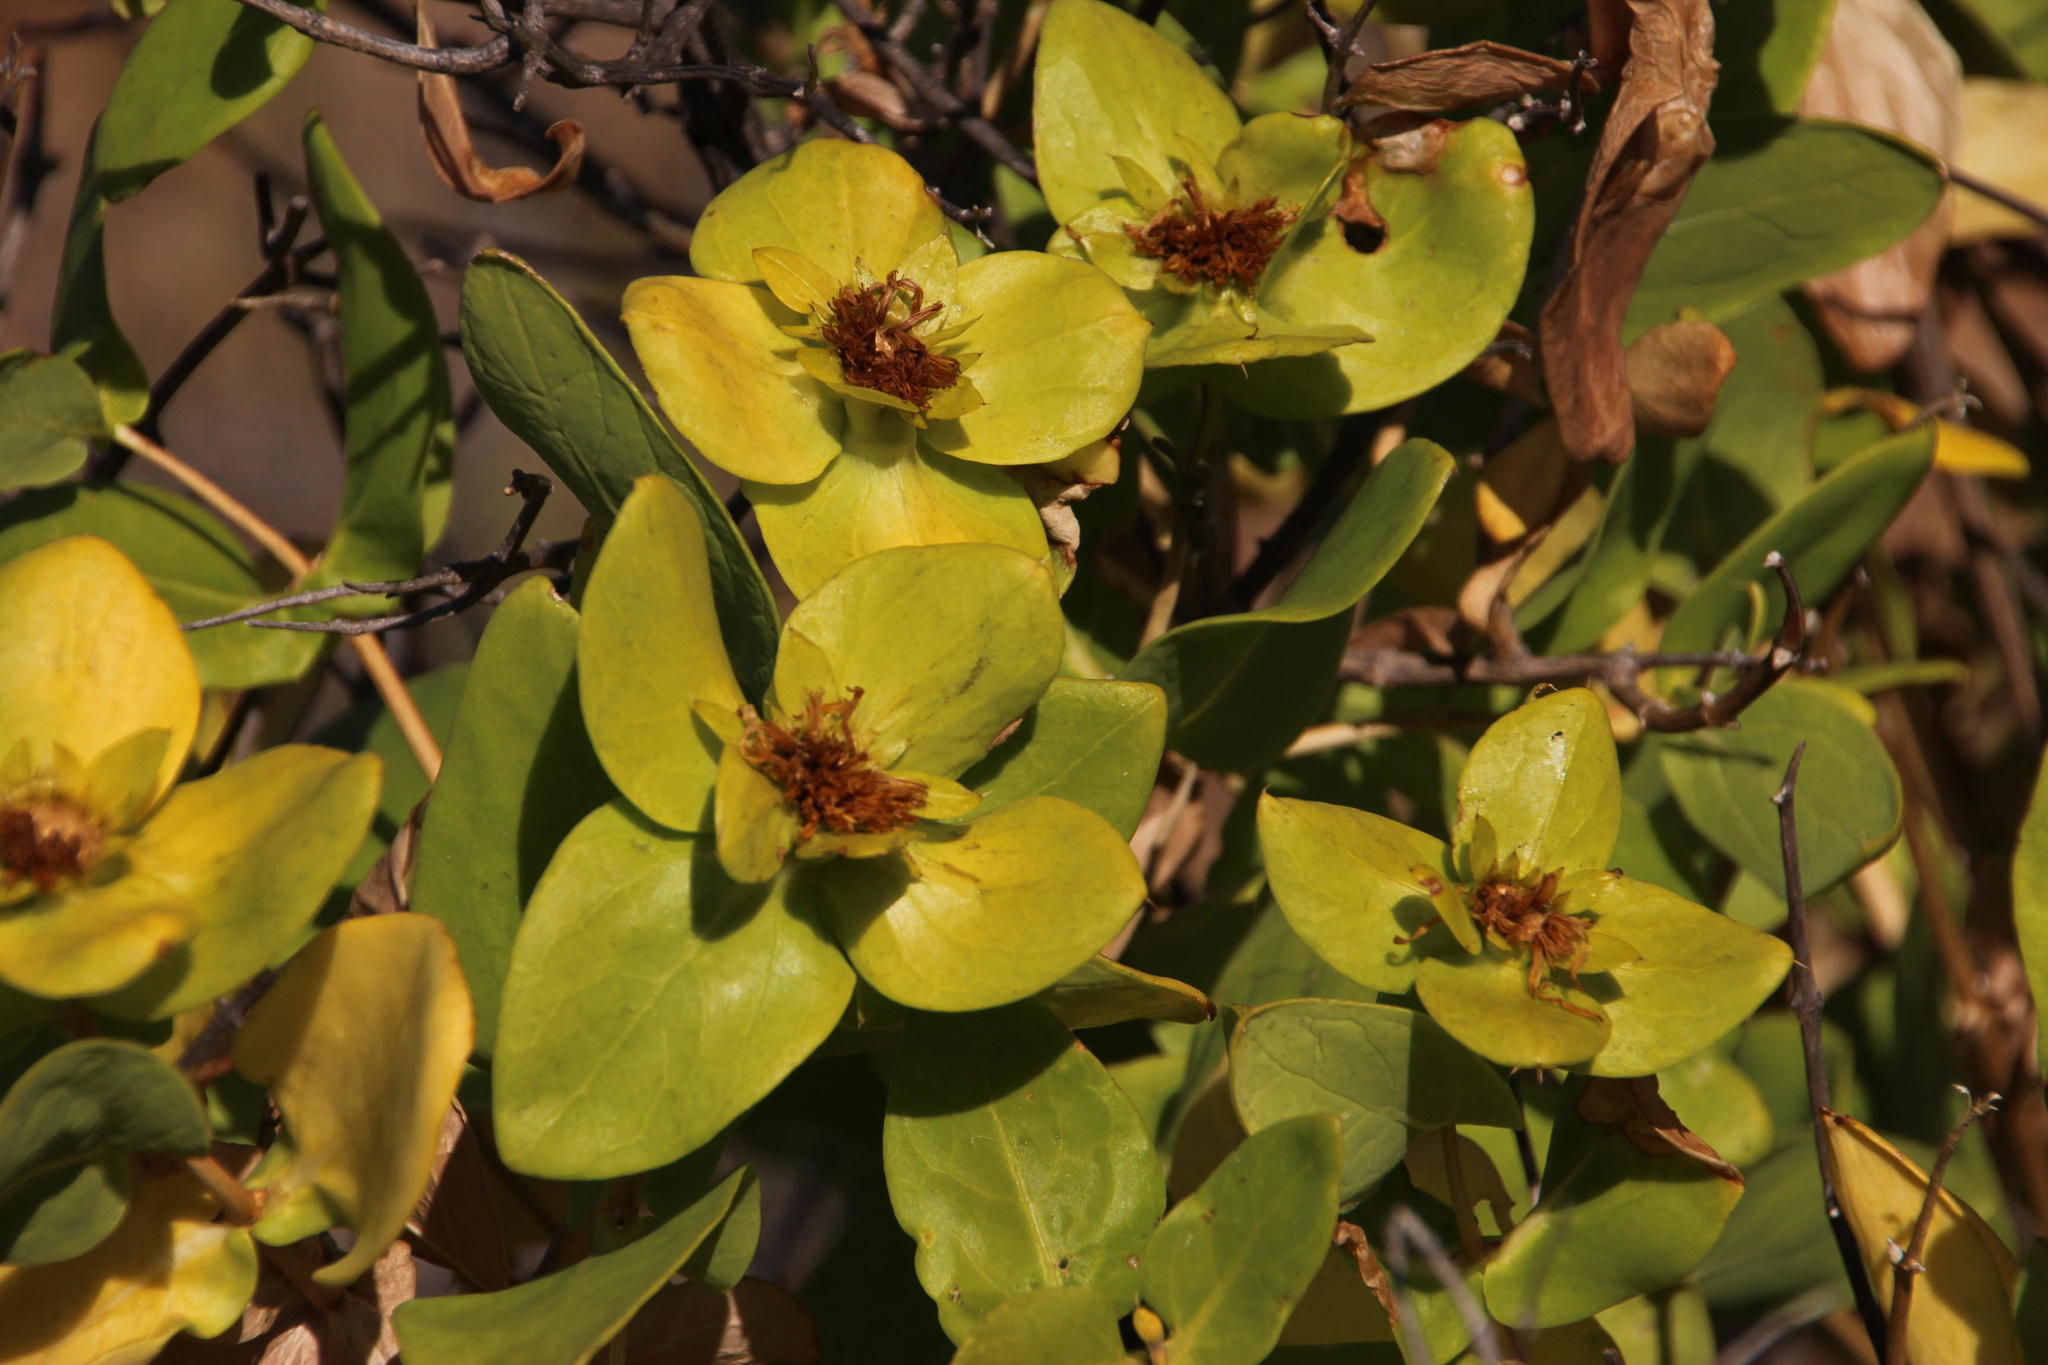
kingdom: Plantae
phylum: Tracheophyta
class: Magnoliopsida
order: Asterales
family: Asteraceae
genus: Didelta
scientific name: Didelta spinosa
